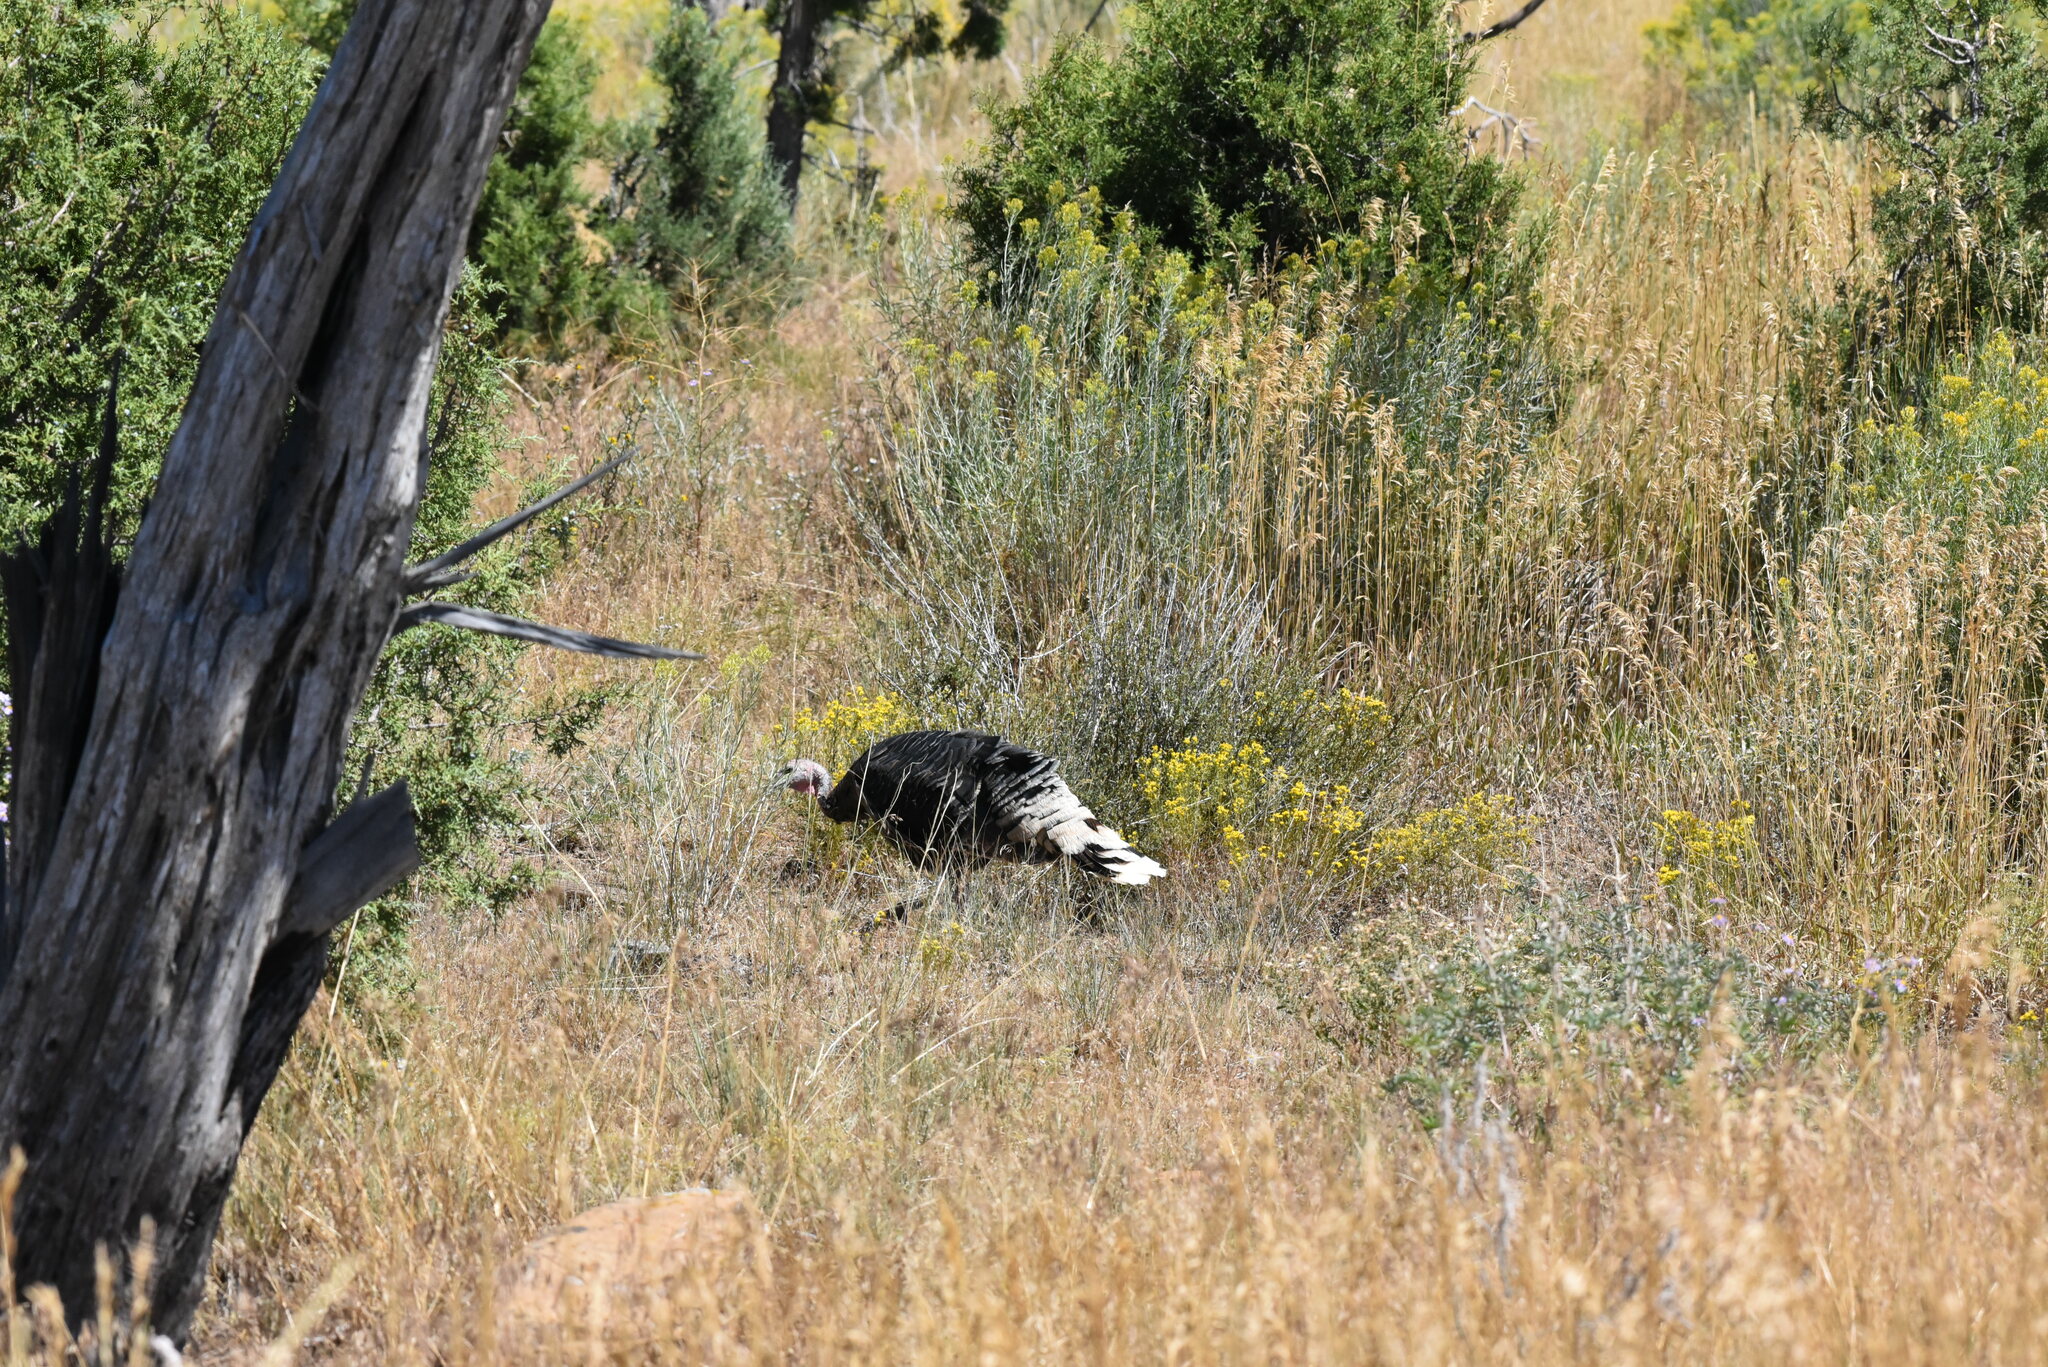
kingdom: Animalia
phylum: Chordata
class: Aves
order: Galliformes
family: Phasianidae
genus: Meleagris
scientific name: Meleagris gallopavo
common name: Wild turkey
